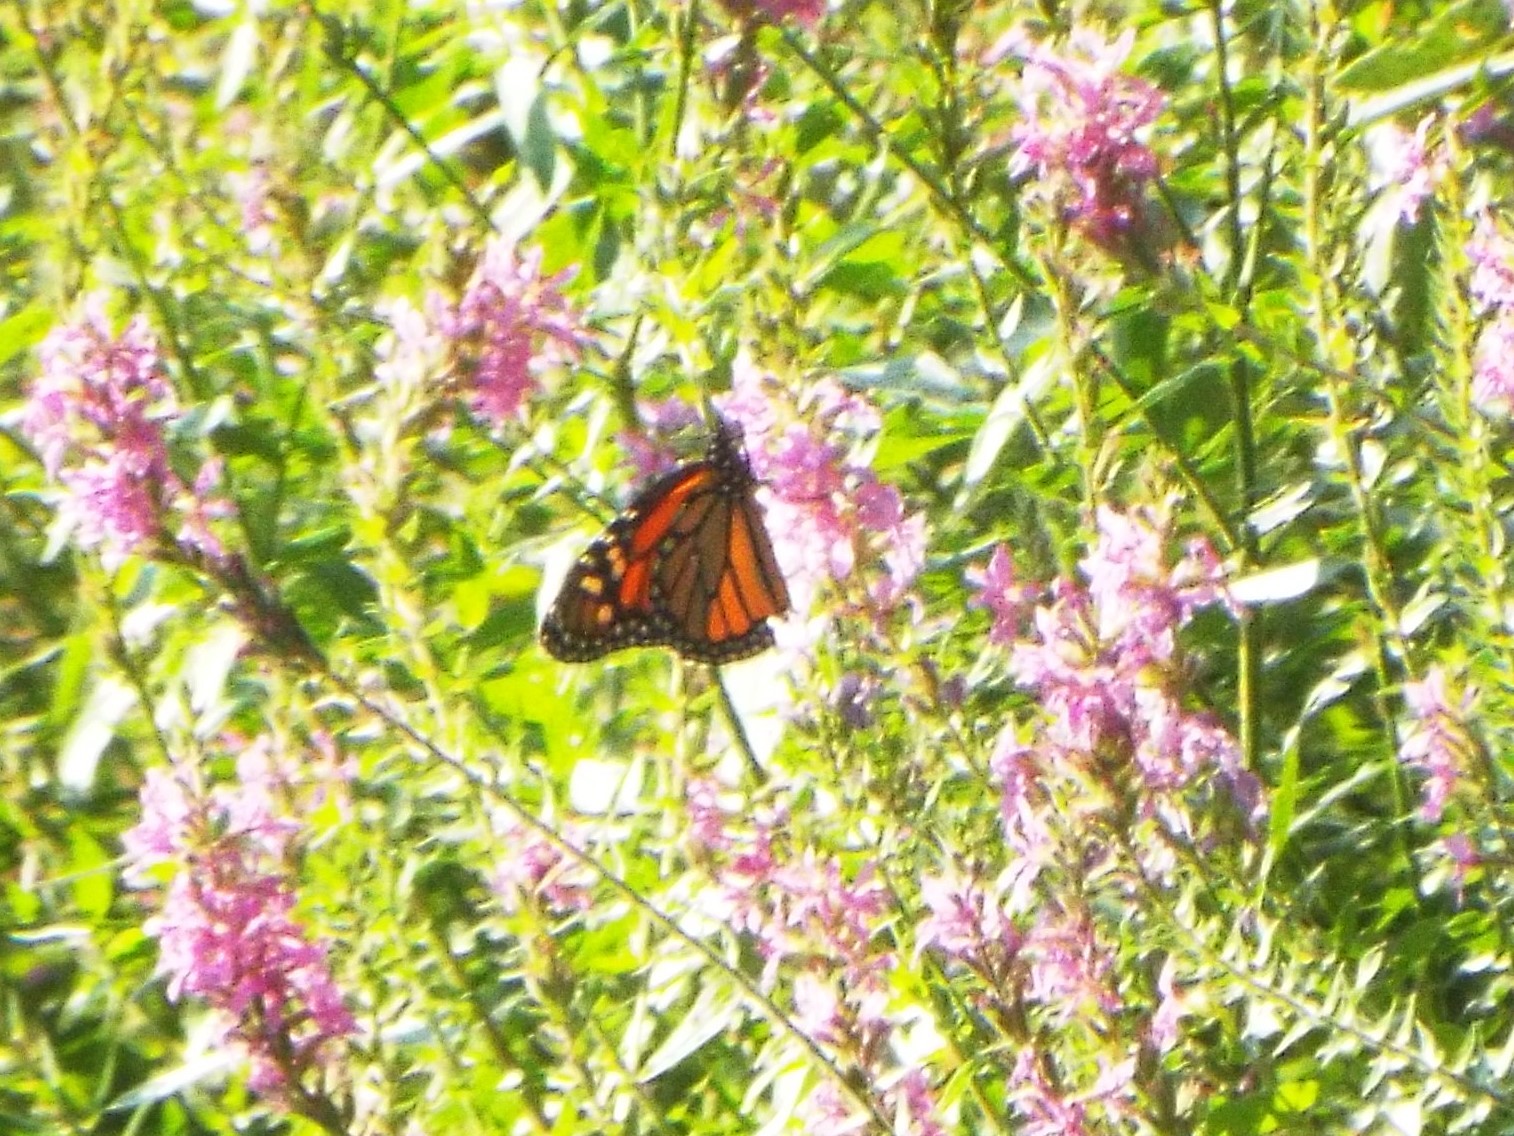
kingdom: Animalia
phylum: Arthropoda
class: Insecta
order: Lepidoptera
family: Nymphalidae
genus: Danaus
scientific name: Danaus plexippus
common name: Monarch
